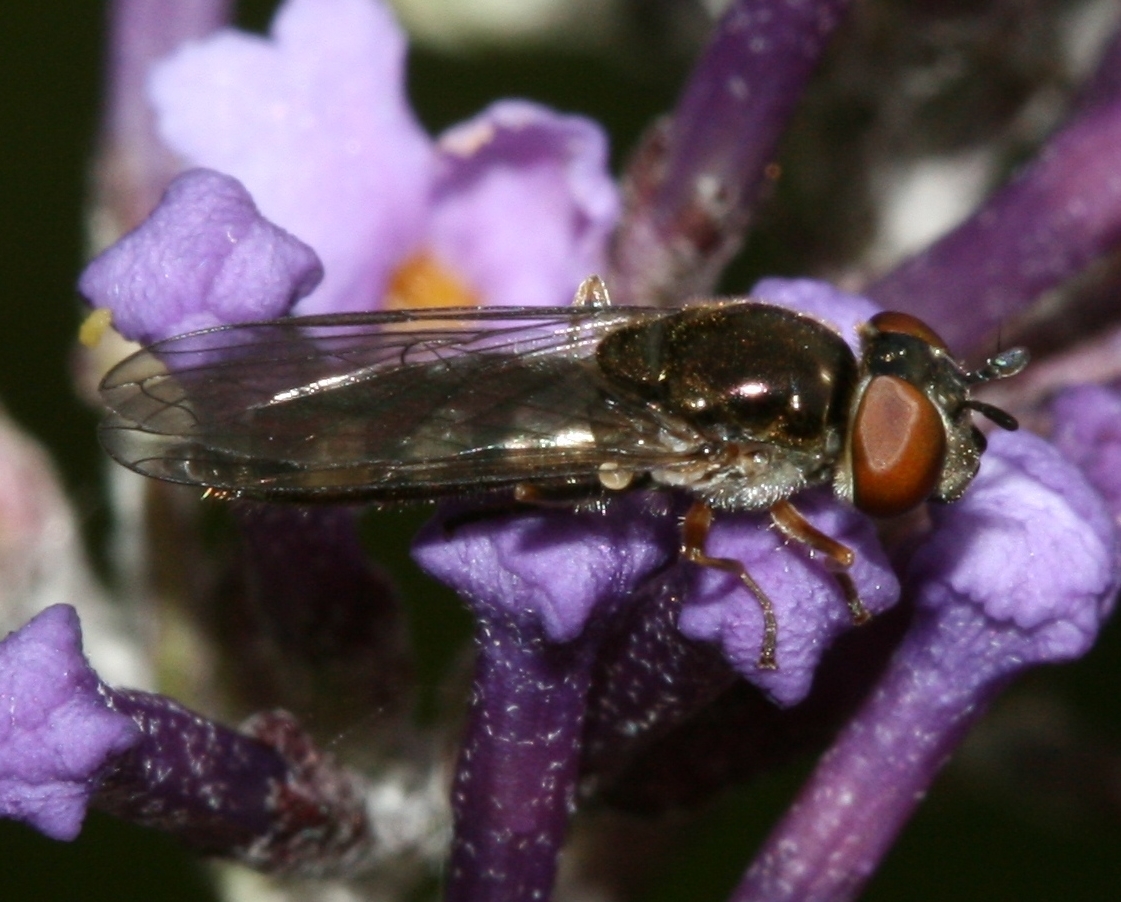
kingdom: Animalia
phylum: Arthropoda
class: Insecta
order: Diptera
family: Syrphidae
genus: Platycheirus
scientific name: Platycheirus albimanus
